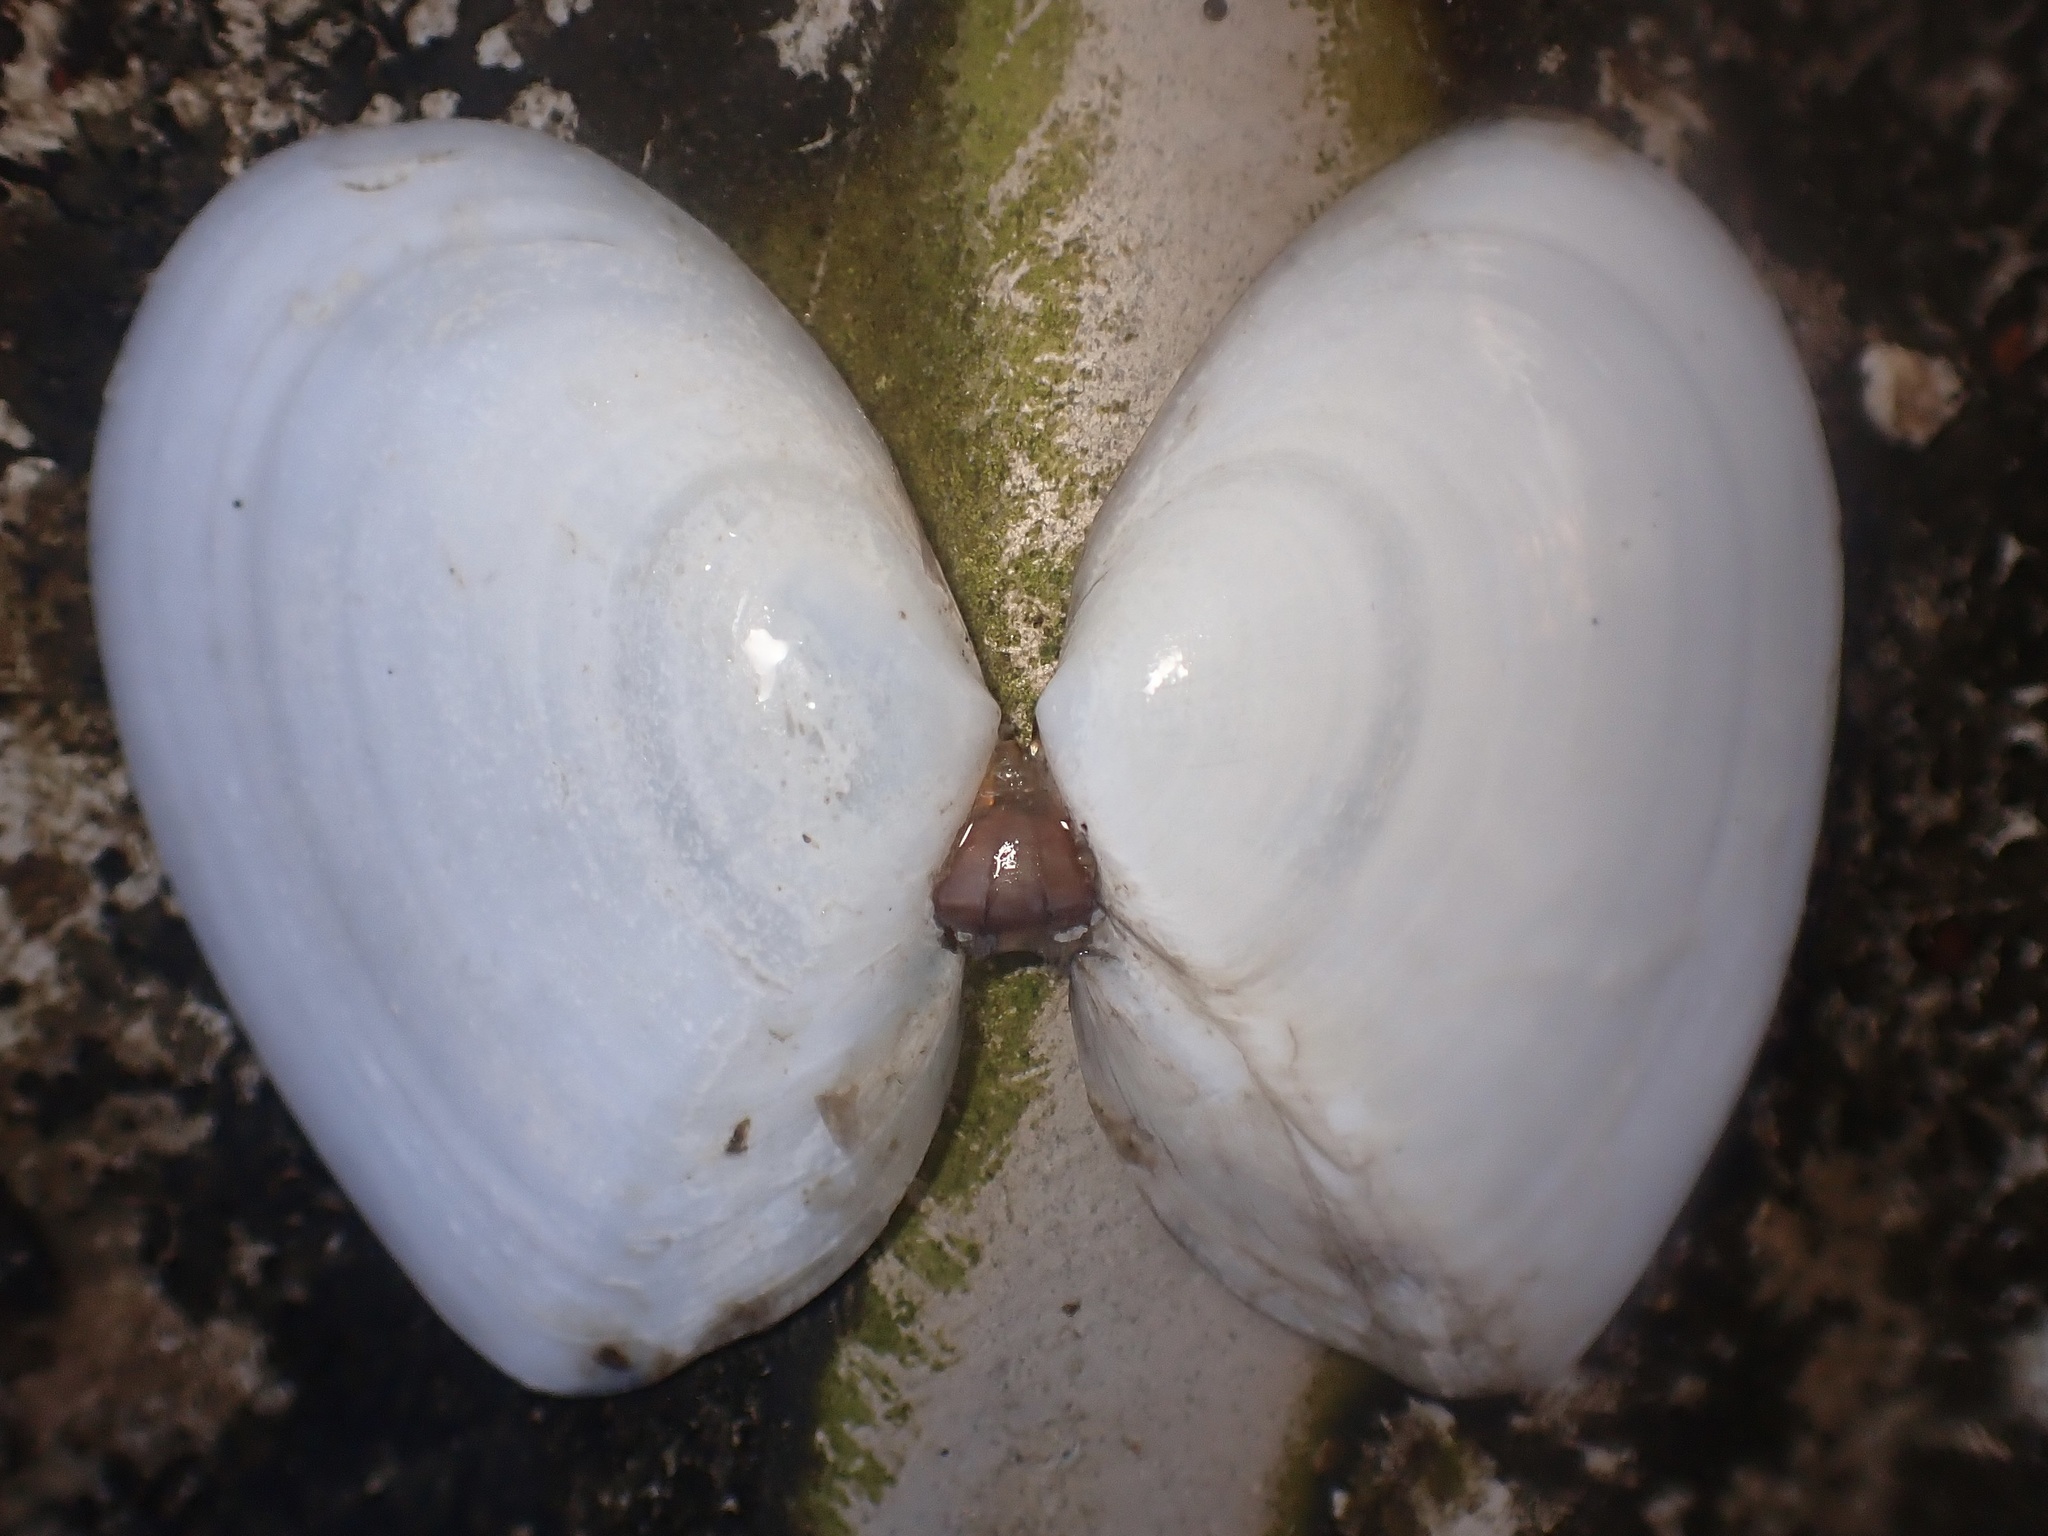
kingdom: Animalia
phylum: Mollusca
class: Bivalvia
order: Cardiida
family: Tellinidae
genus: Rexithaerus
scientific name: Rexithaerus secta
